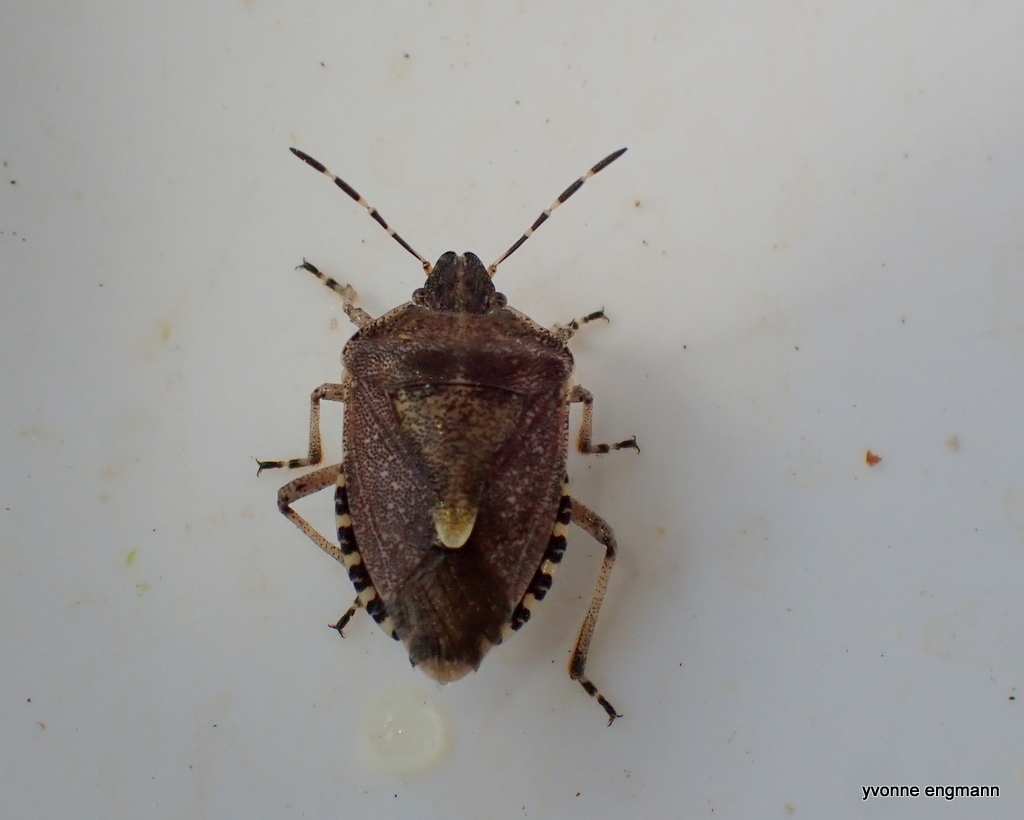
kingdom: Animalia
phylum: Arthropoda
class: Insecta
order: Hemiptera
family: Pentatomidae
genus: Dolycoris
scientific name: Dolycoris baccarum
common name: Sloe bug
